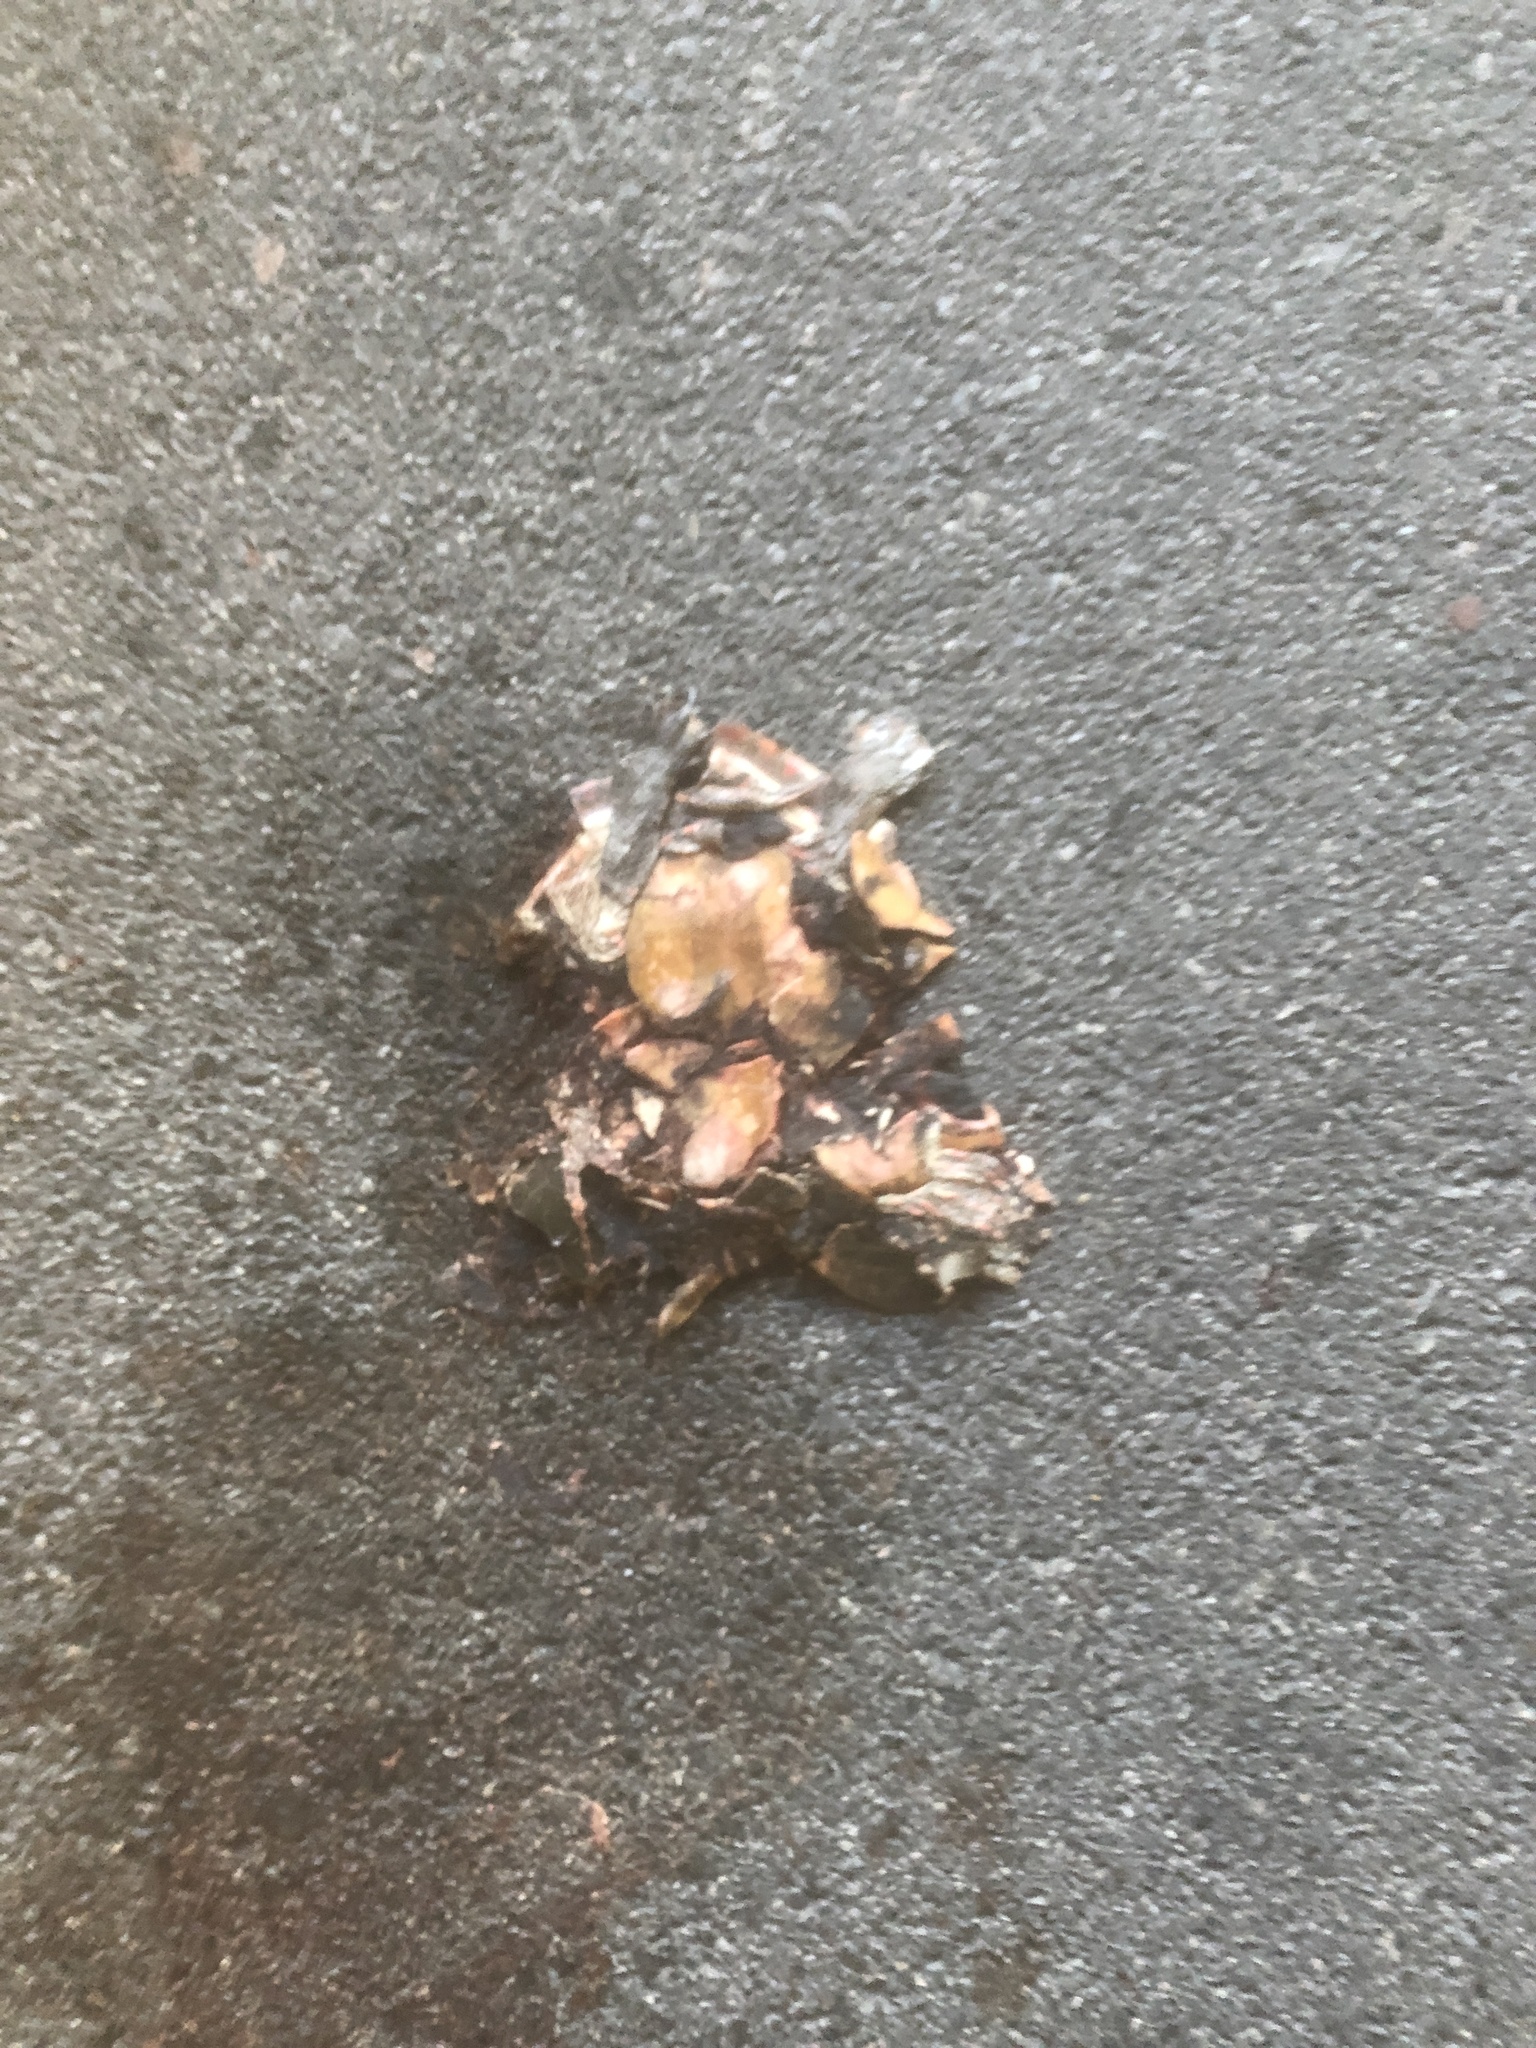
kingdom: Animalia
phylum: Chordata
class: Testudines
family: Emydidae
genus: Chrysemys
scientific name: Chrysemys picta
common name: Painted turtle
